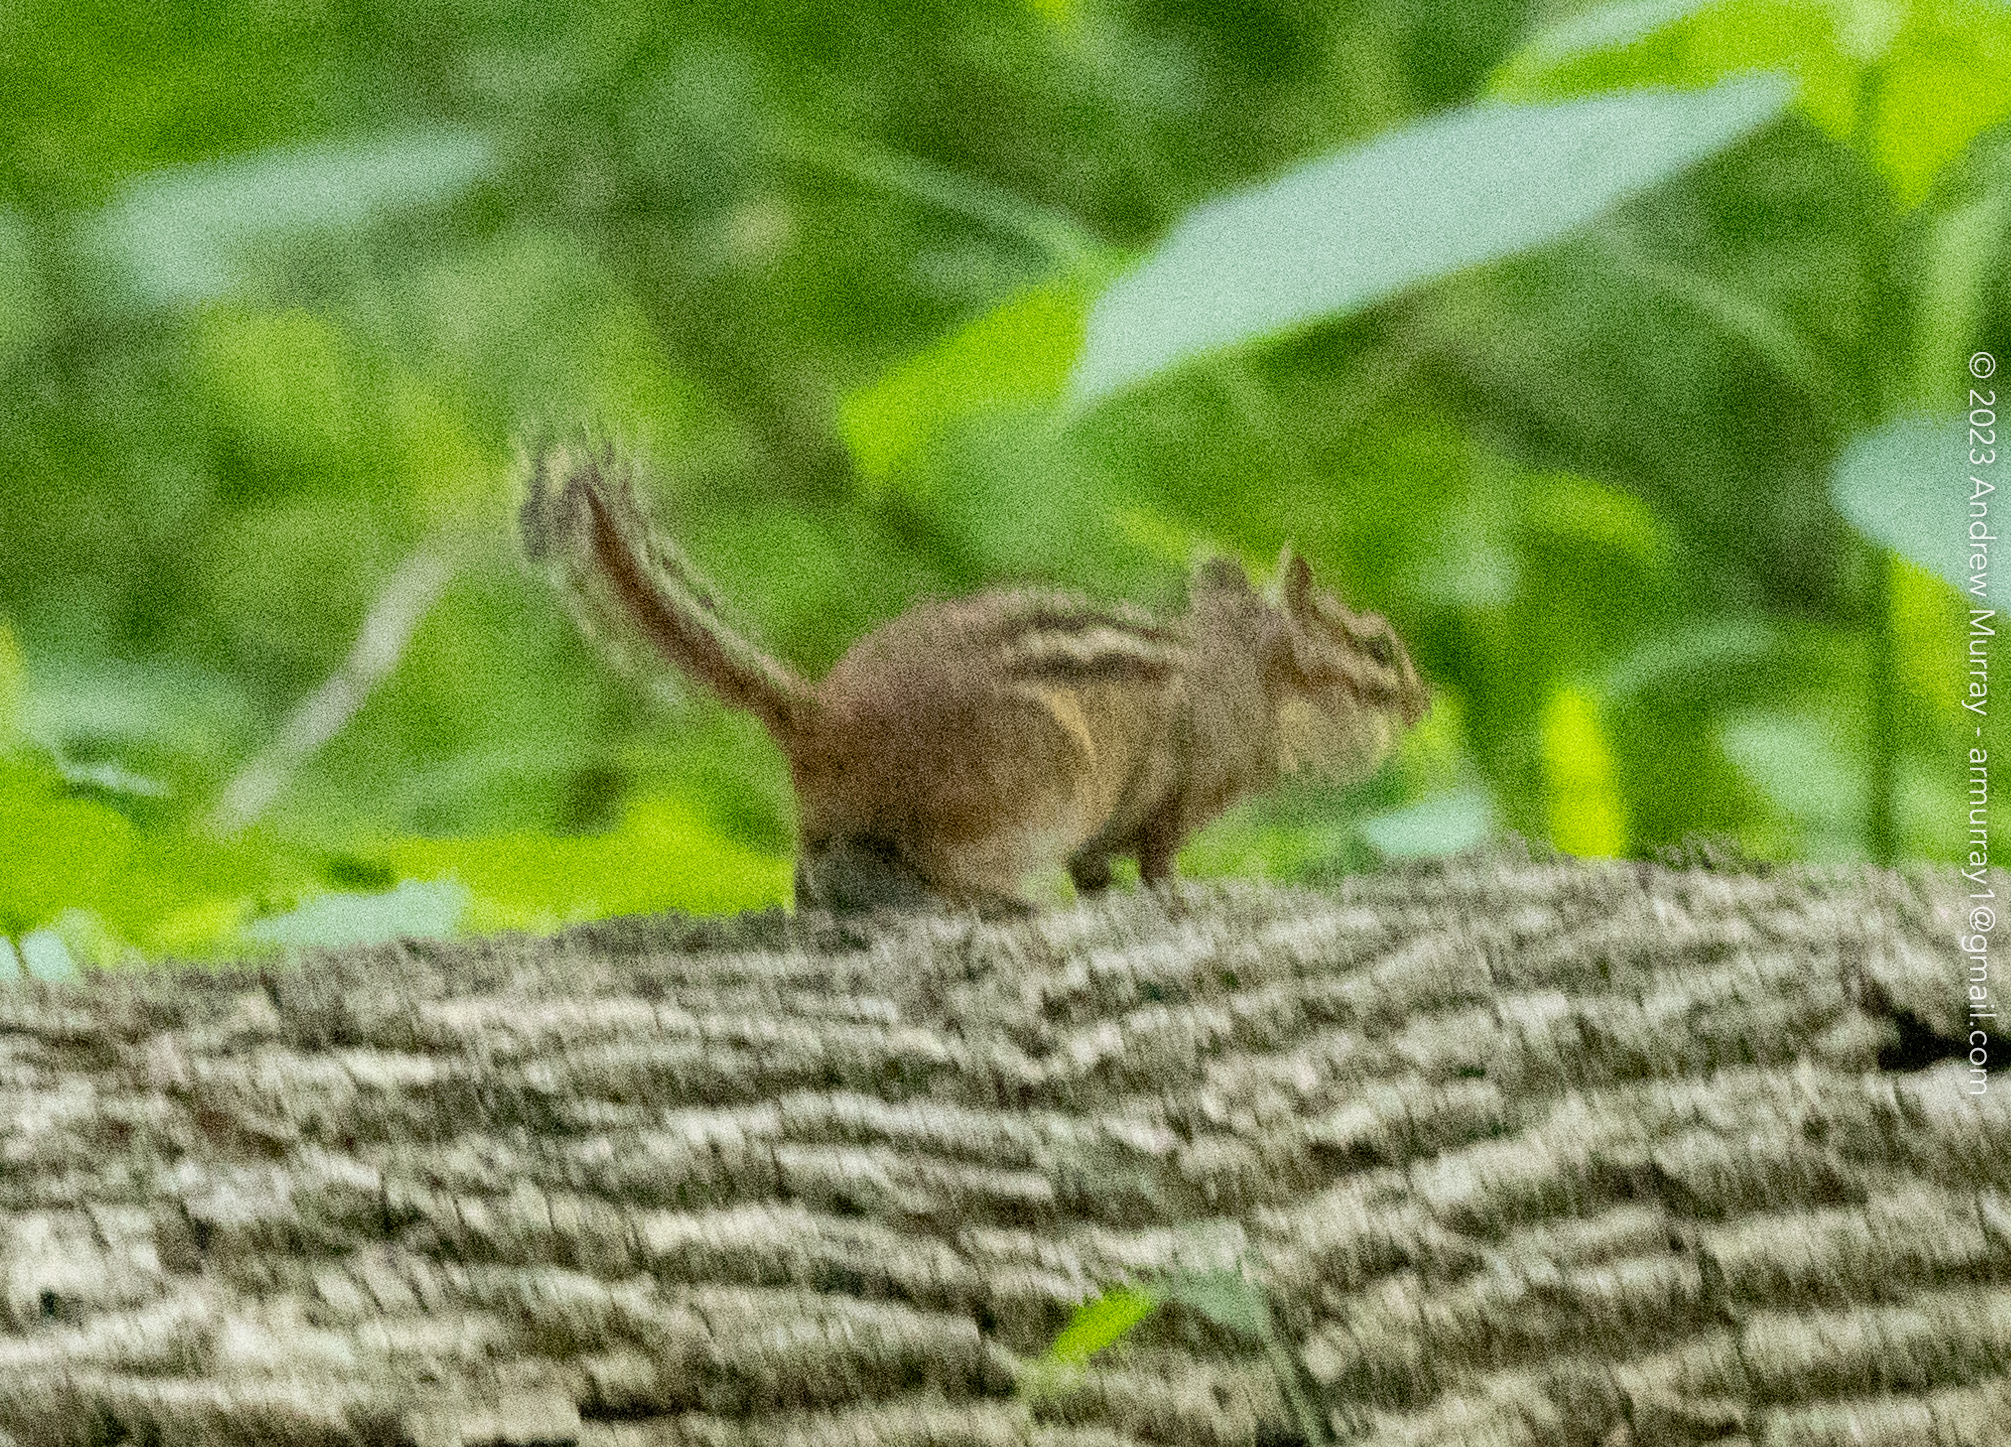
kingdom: Animalia
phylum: Chordata
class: Mammalia
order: Rodentia
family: Sciuridae
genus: Tamias
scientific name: Tamias striatus
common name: Eastern chipmunk
